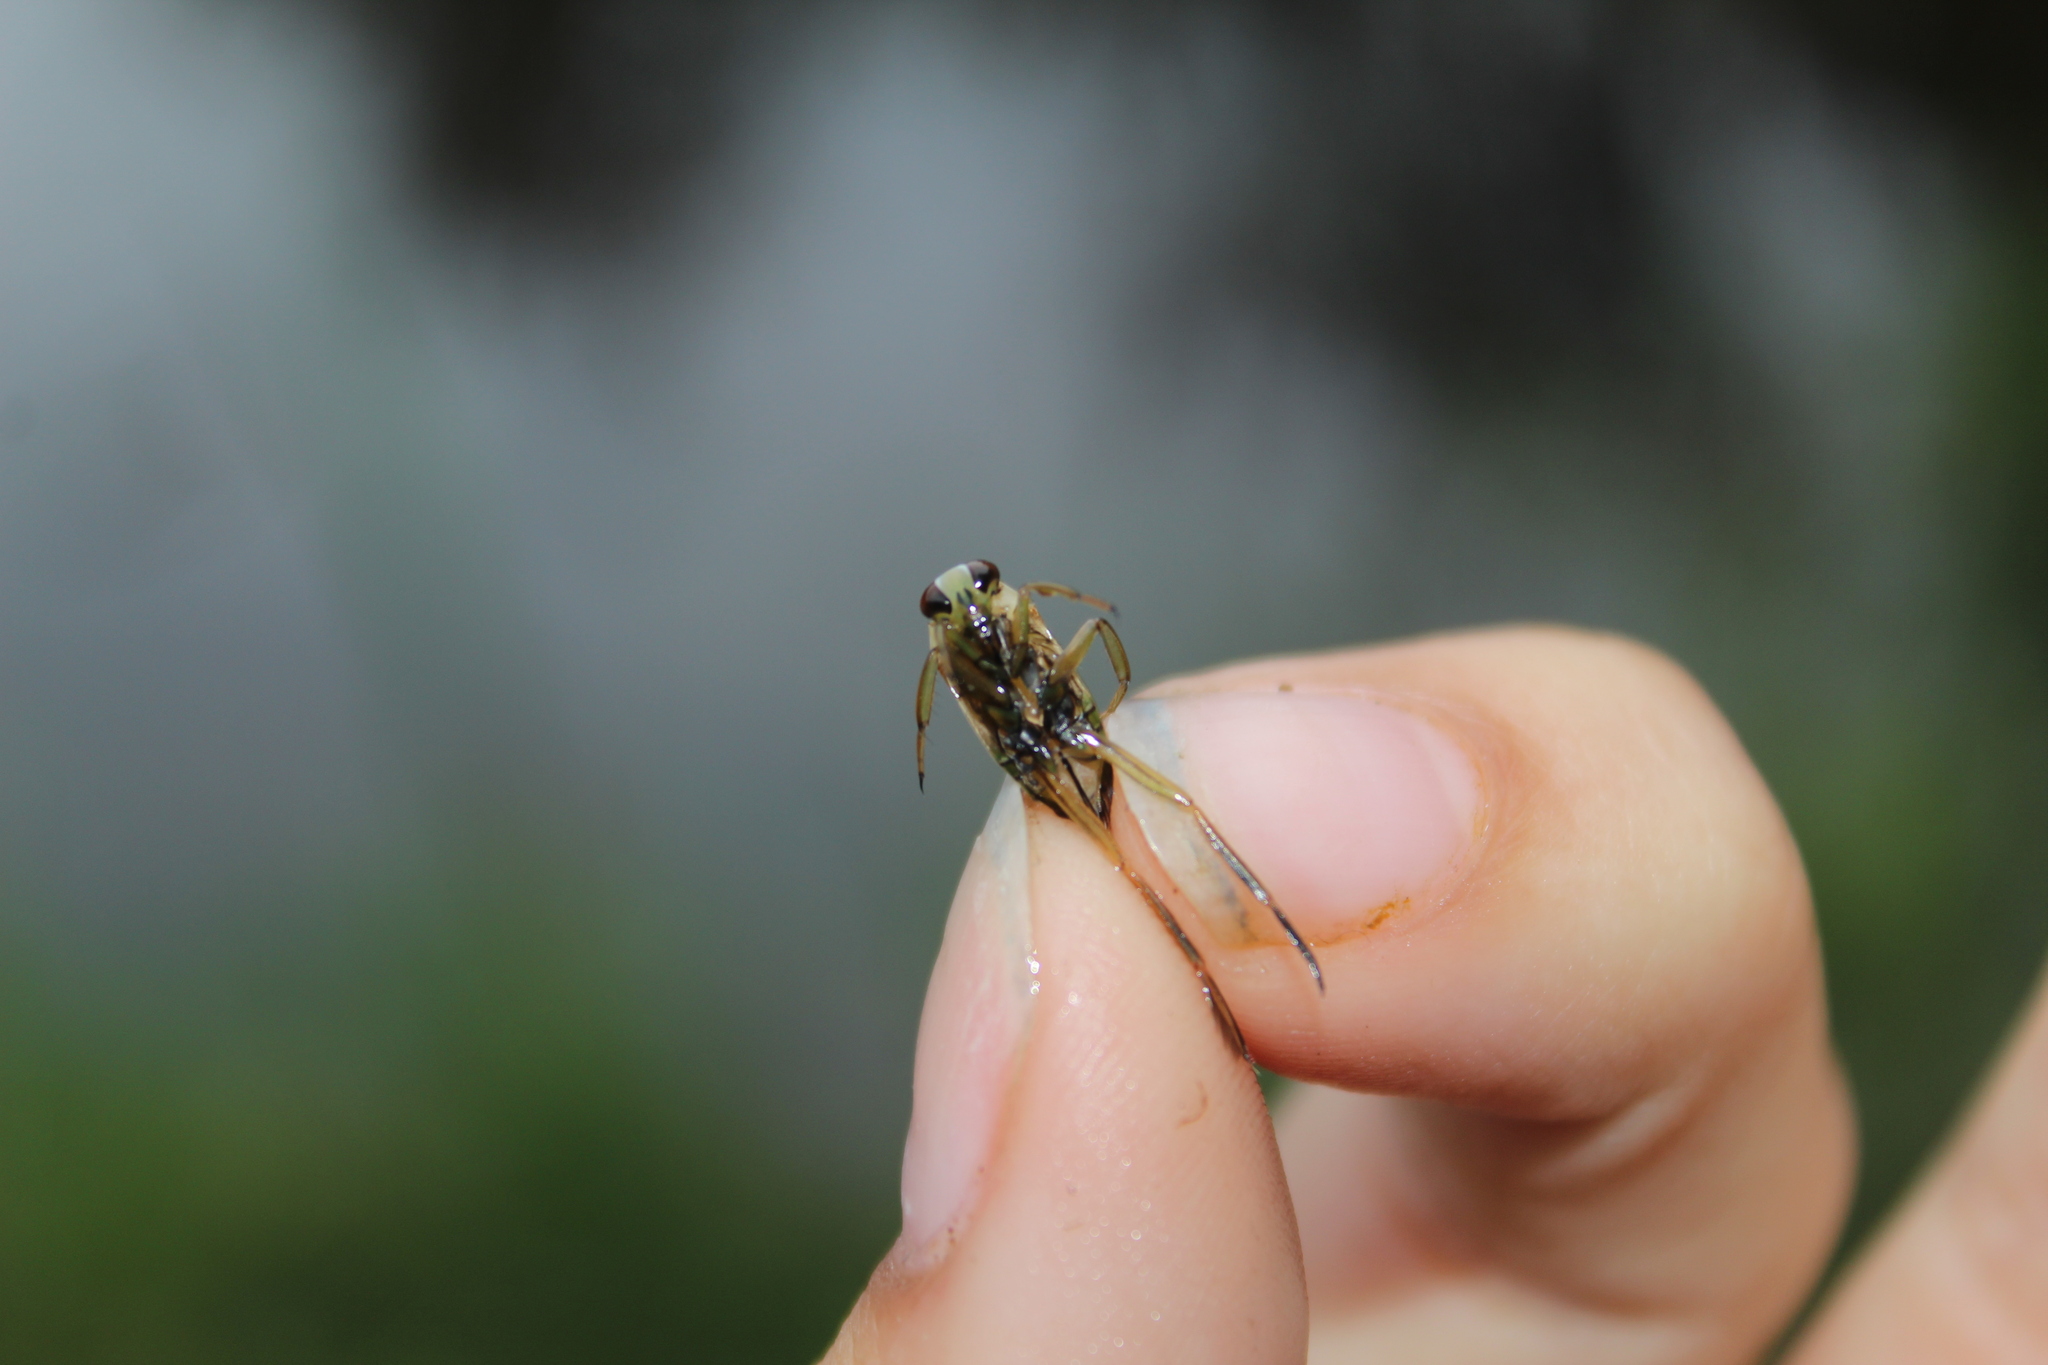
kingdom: Animalia
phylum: Arthropoda
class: Insecta
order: Hemiptera
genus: Paranecta
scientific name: Paranecta
